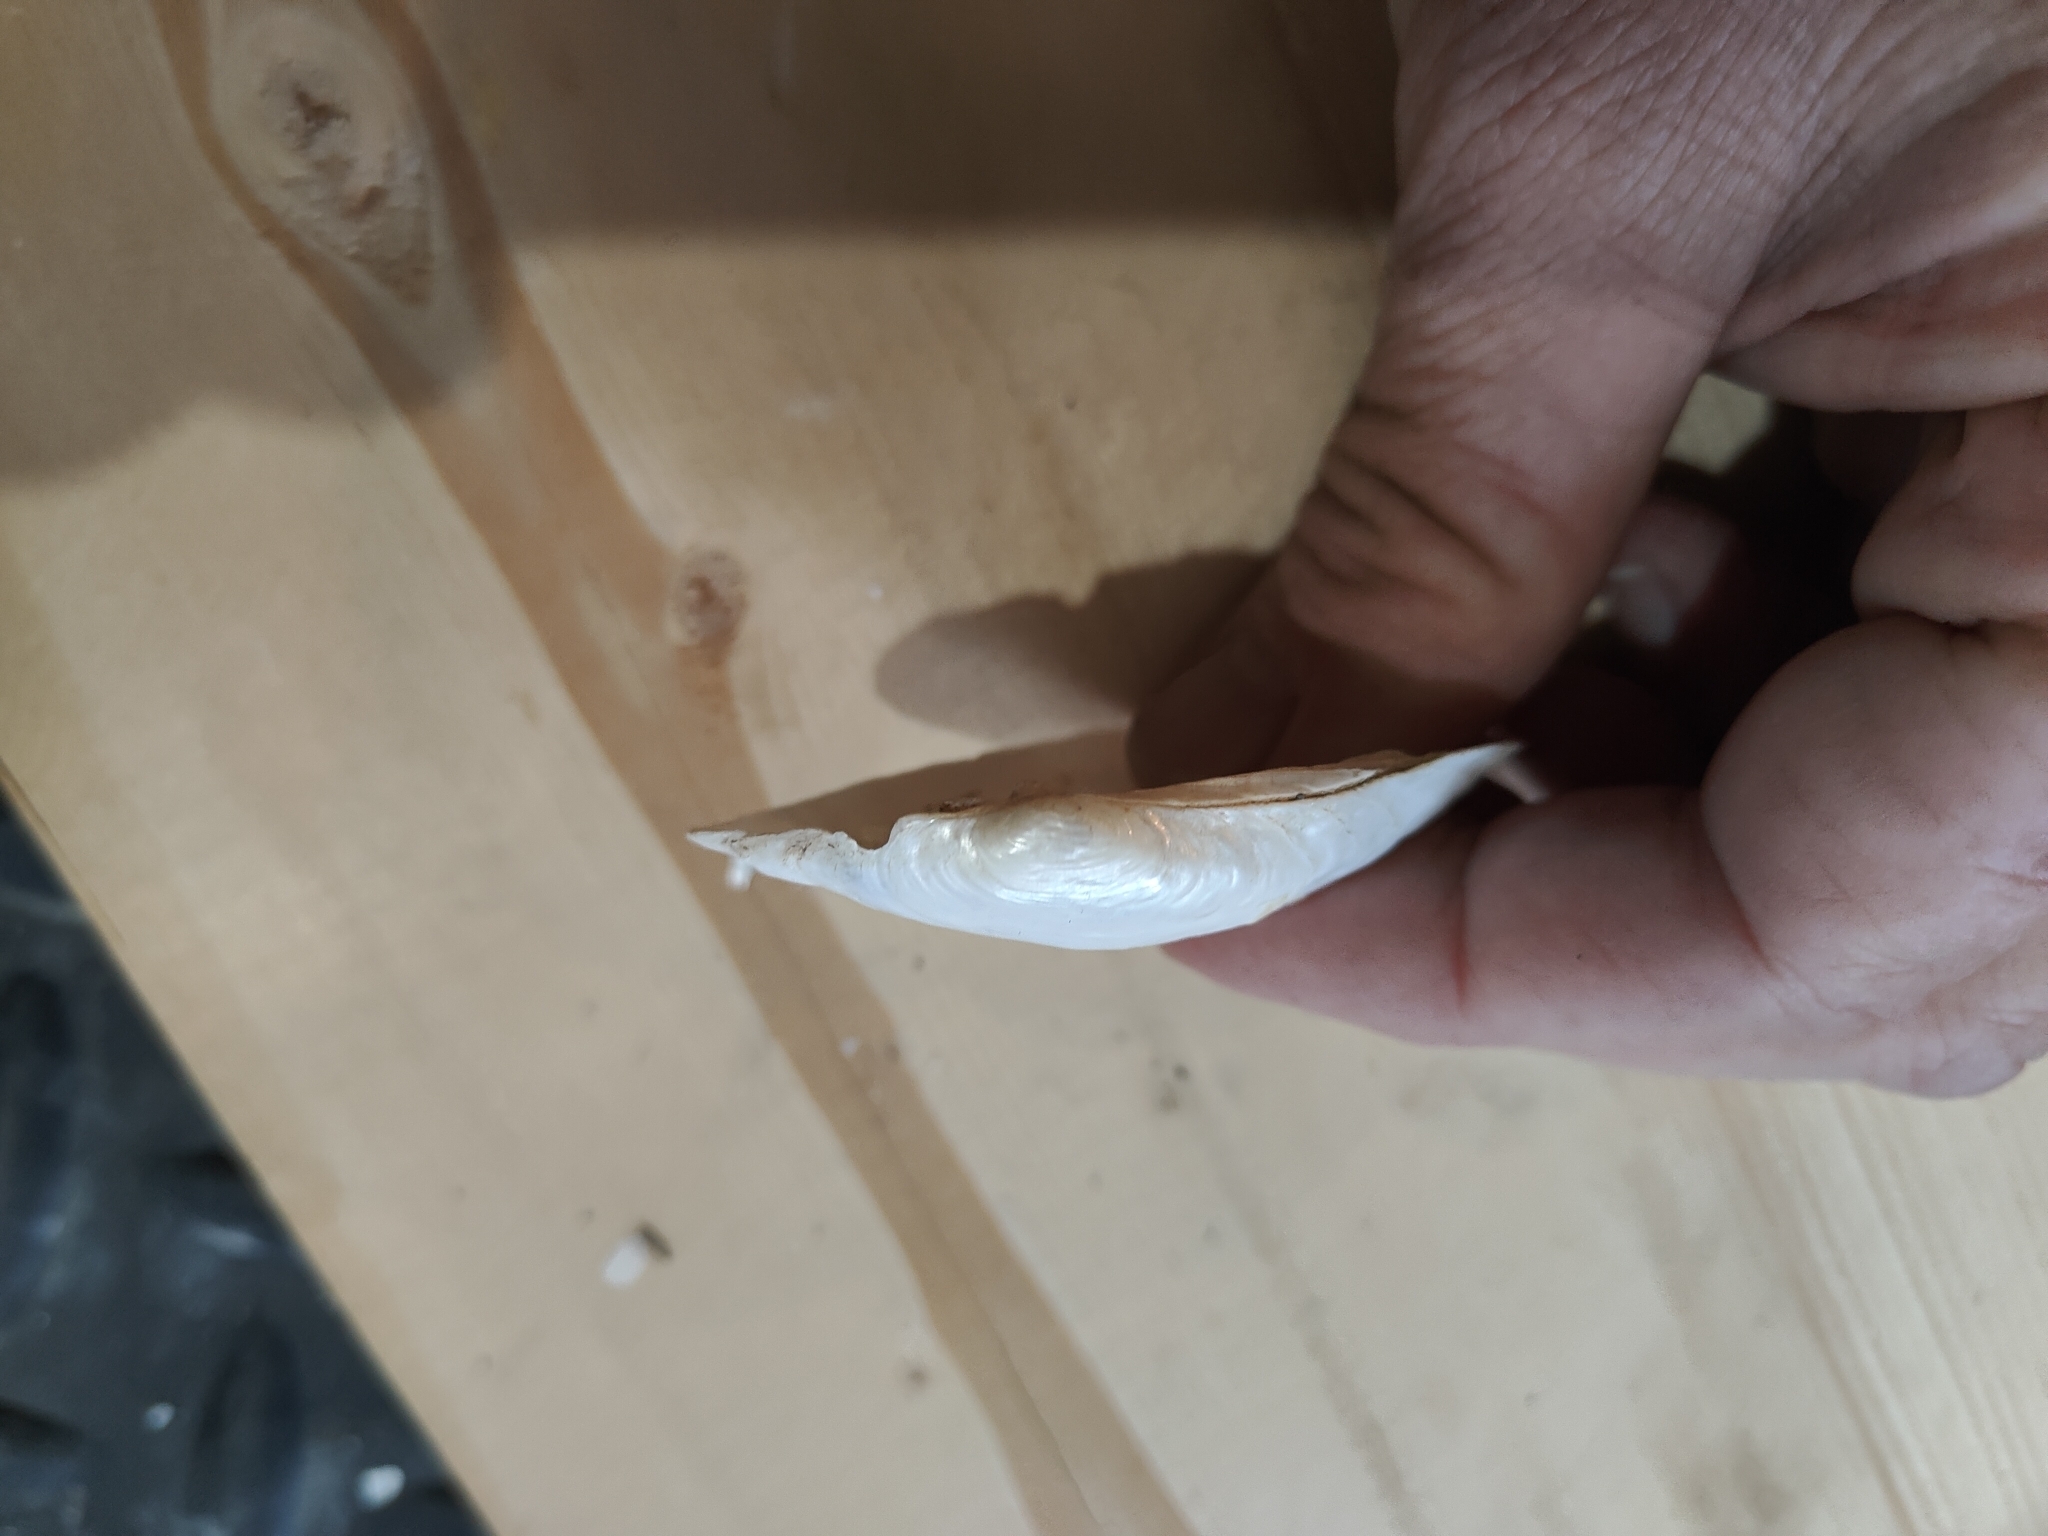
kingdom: Animalia
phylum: Mollusca
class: Bivalvia
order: Unionida
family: Unionidae
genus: Lampsilis
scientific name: Lampsilis siliquoidea
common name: Fatmucket
